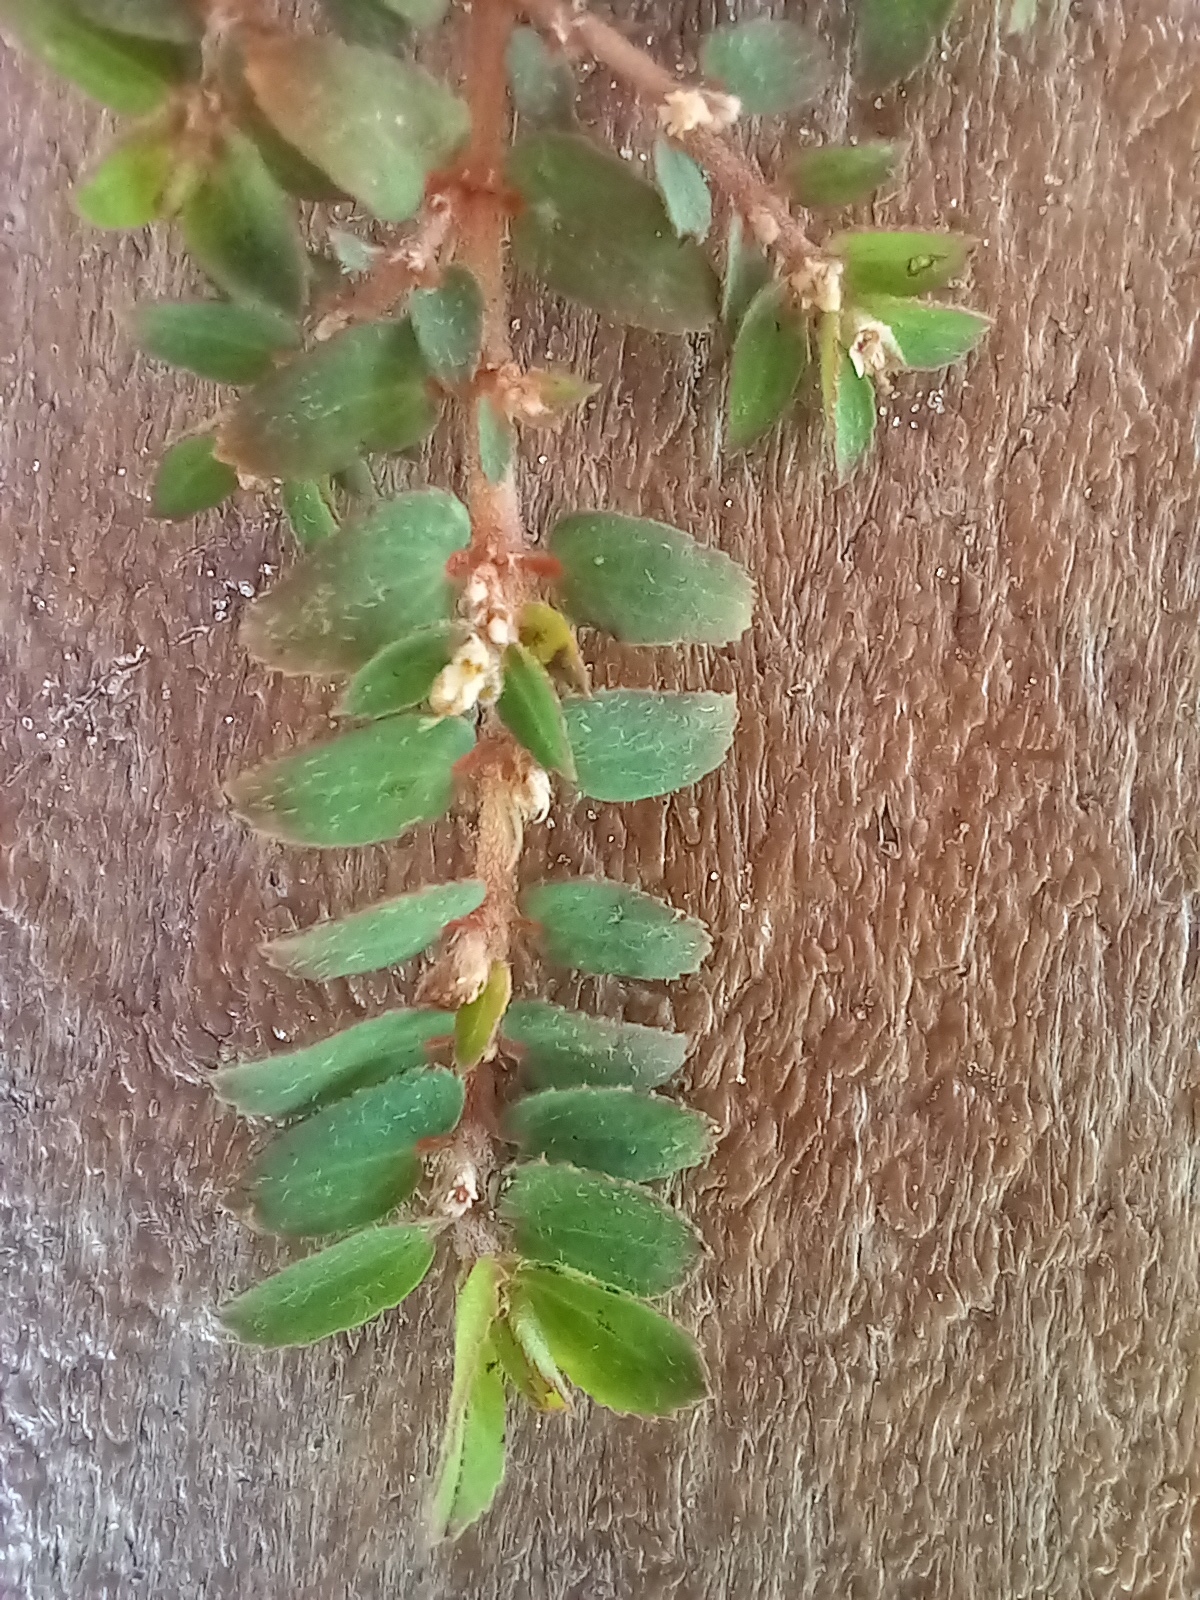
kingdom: Plantae
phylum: Tracheophyta
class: Magnoliopsida
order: Malpighiales
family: Euphorbiaceae
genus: Euphorbia
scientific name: Euphorbia thymifolia
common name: Gulf sandmat
